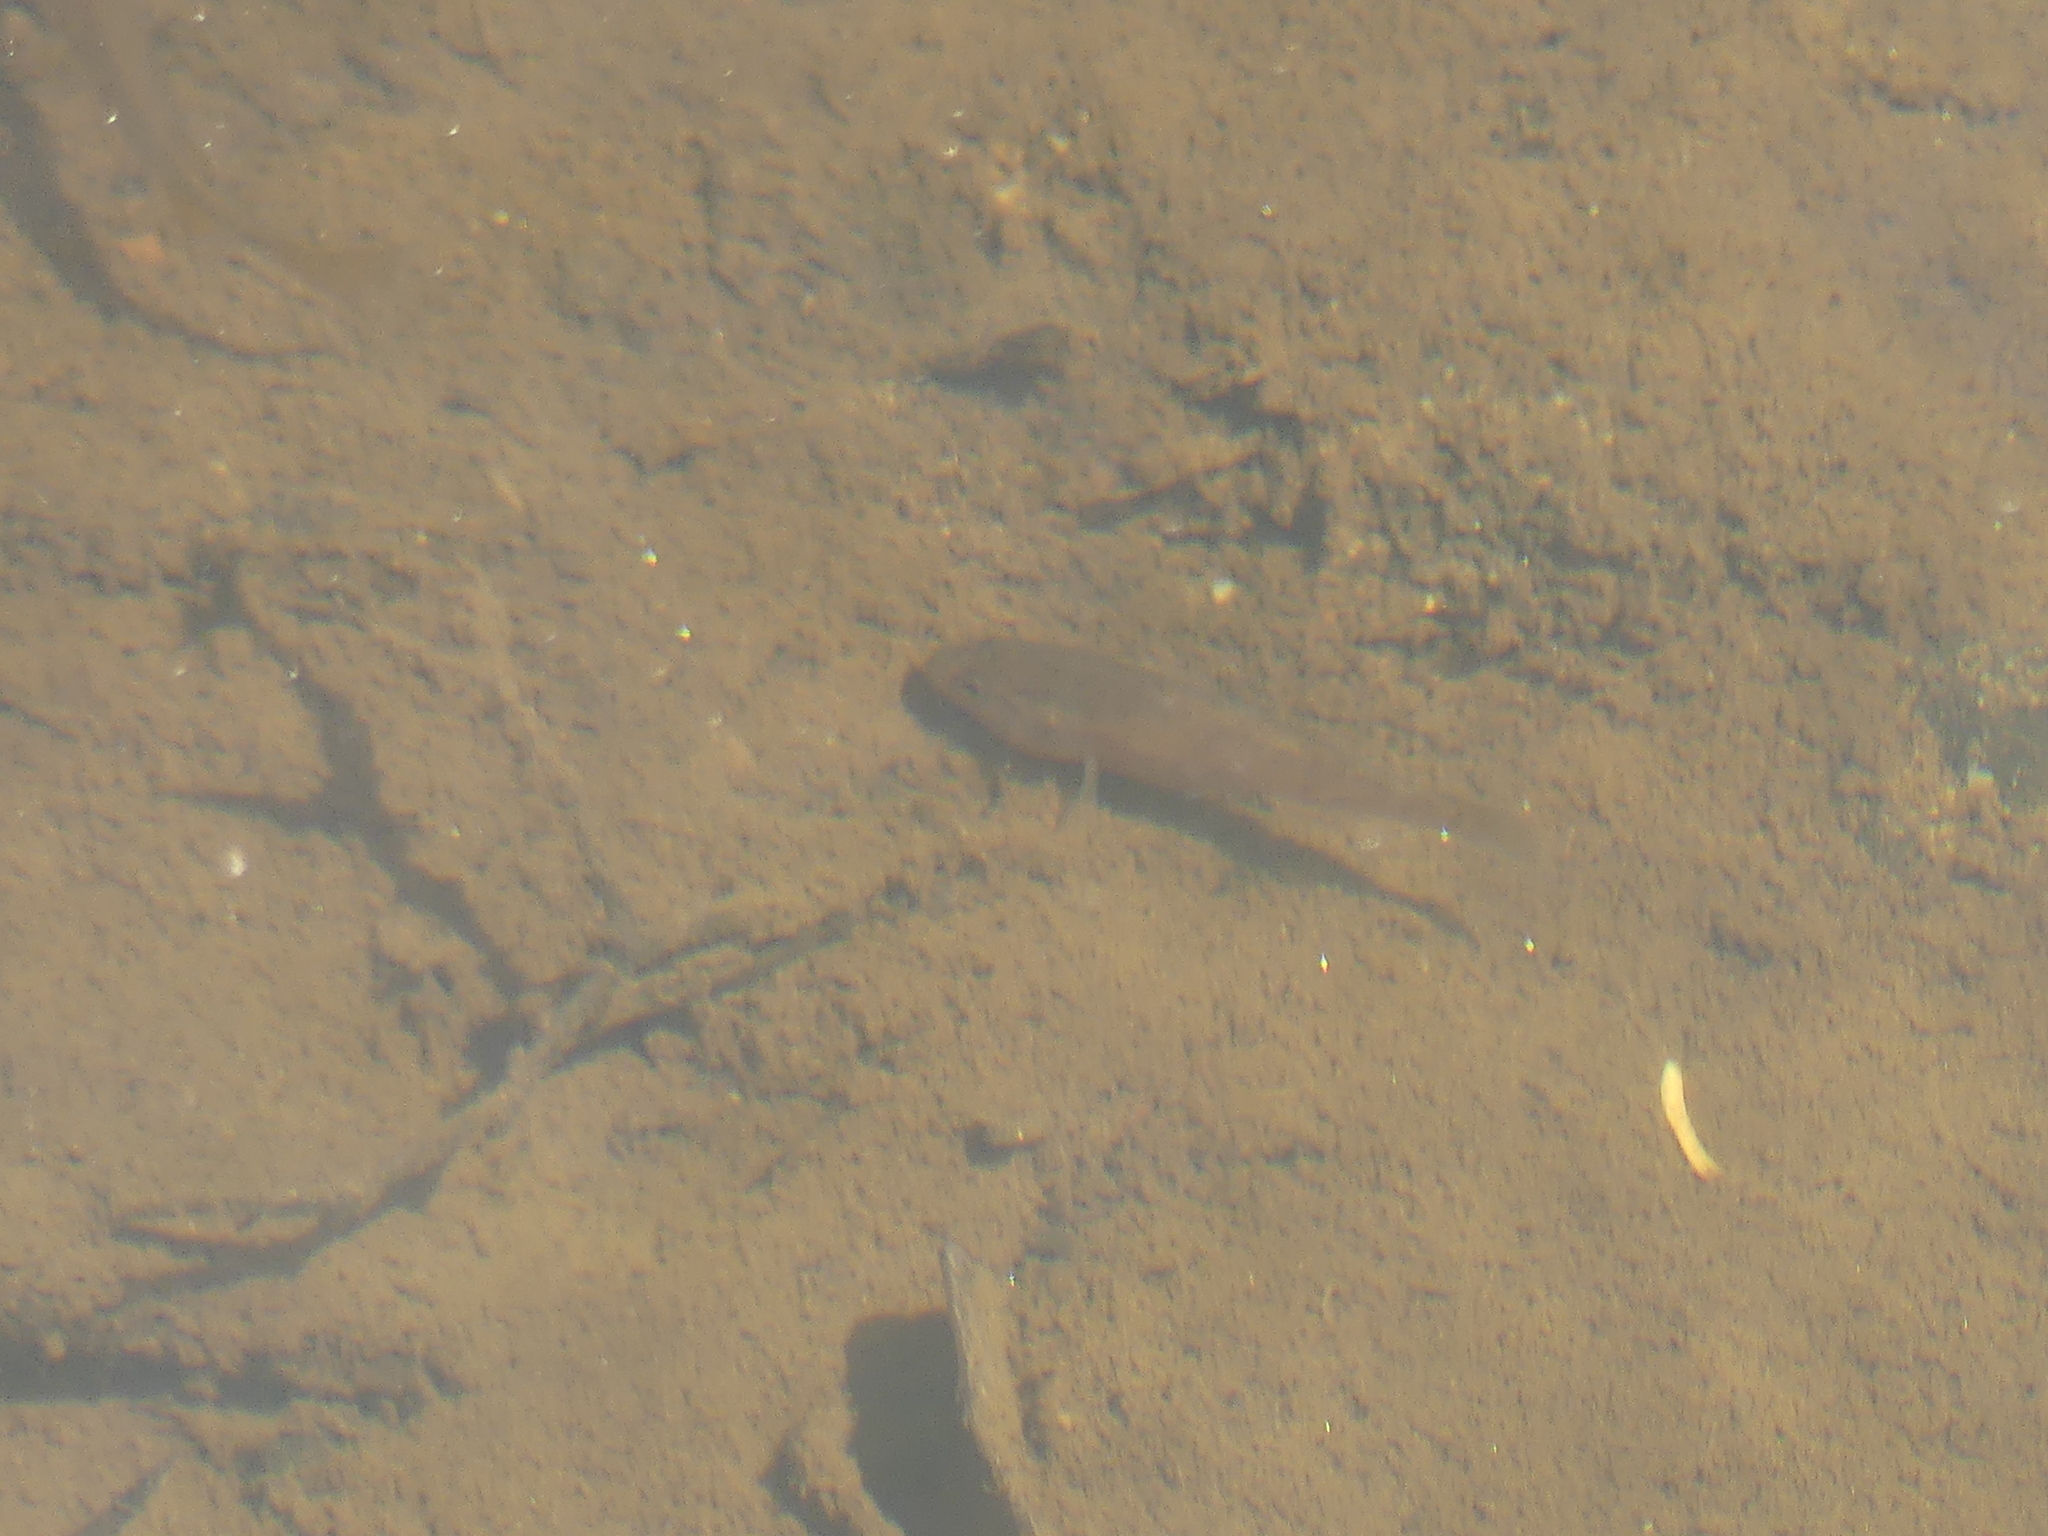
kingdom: Animalia
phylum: Chordata
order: Perciformes
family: Percichthyidae
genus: Bostockia
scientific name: Bostockia porosa
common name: Nightfish
